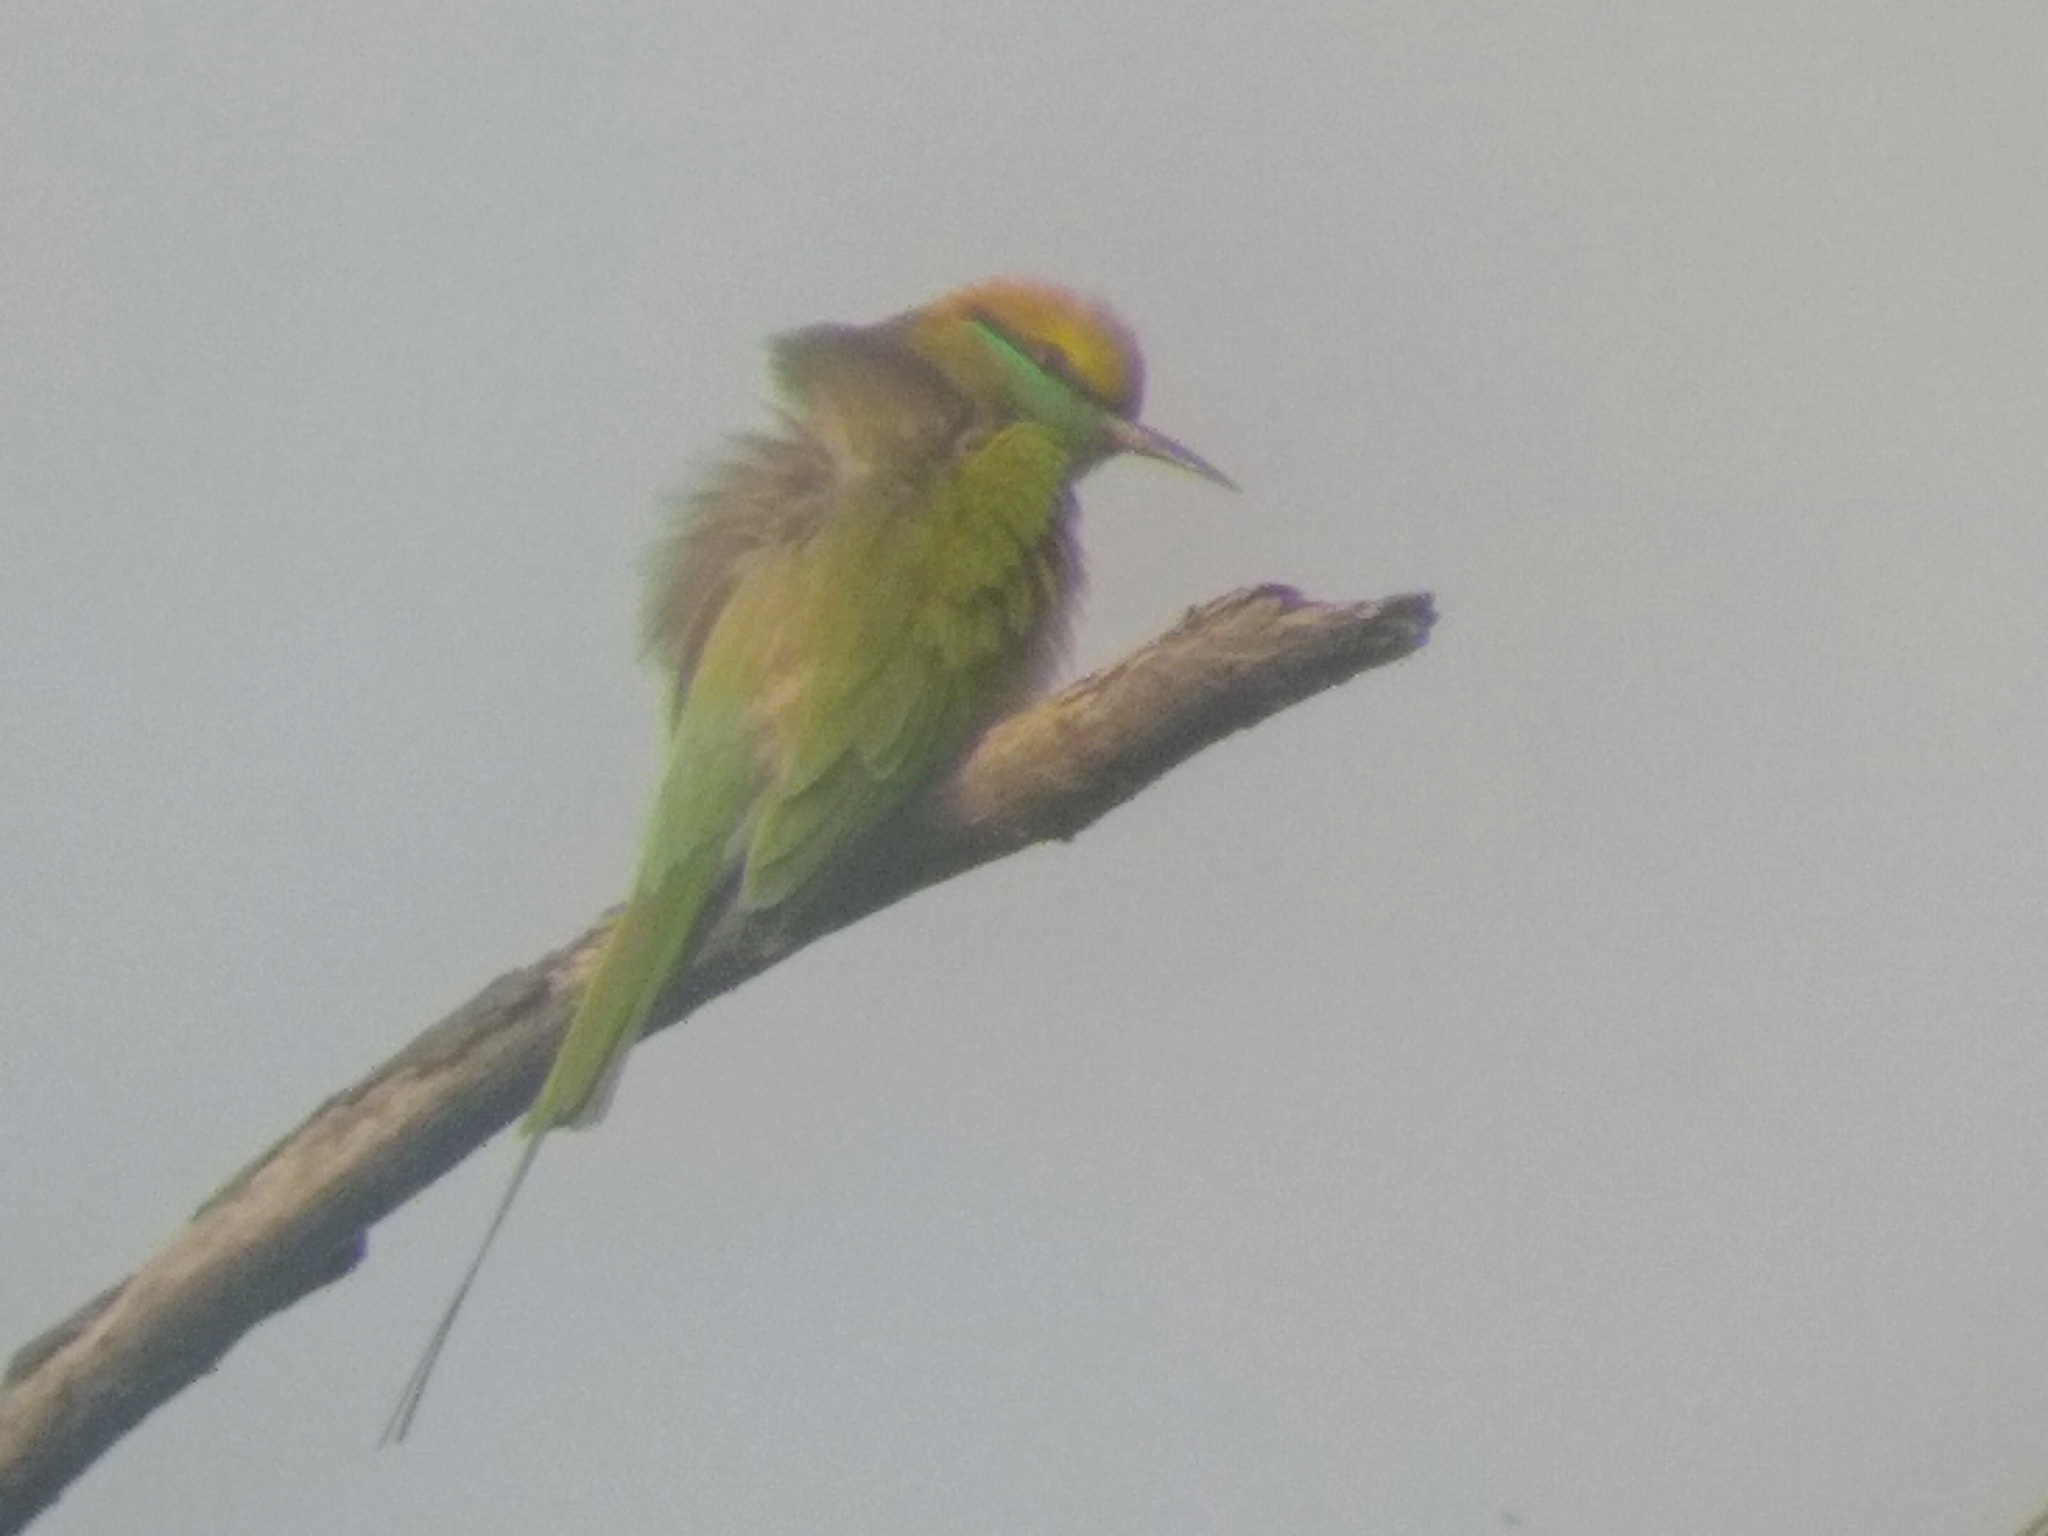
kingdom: Animalia
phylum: Chordata
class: Aves
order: Coraciiformes
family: Meropidae
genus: Merops
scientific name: Merops orientalis
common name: Green bee-eater
